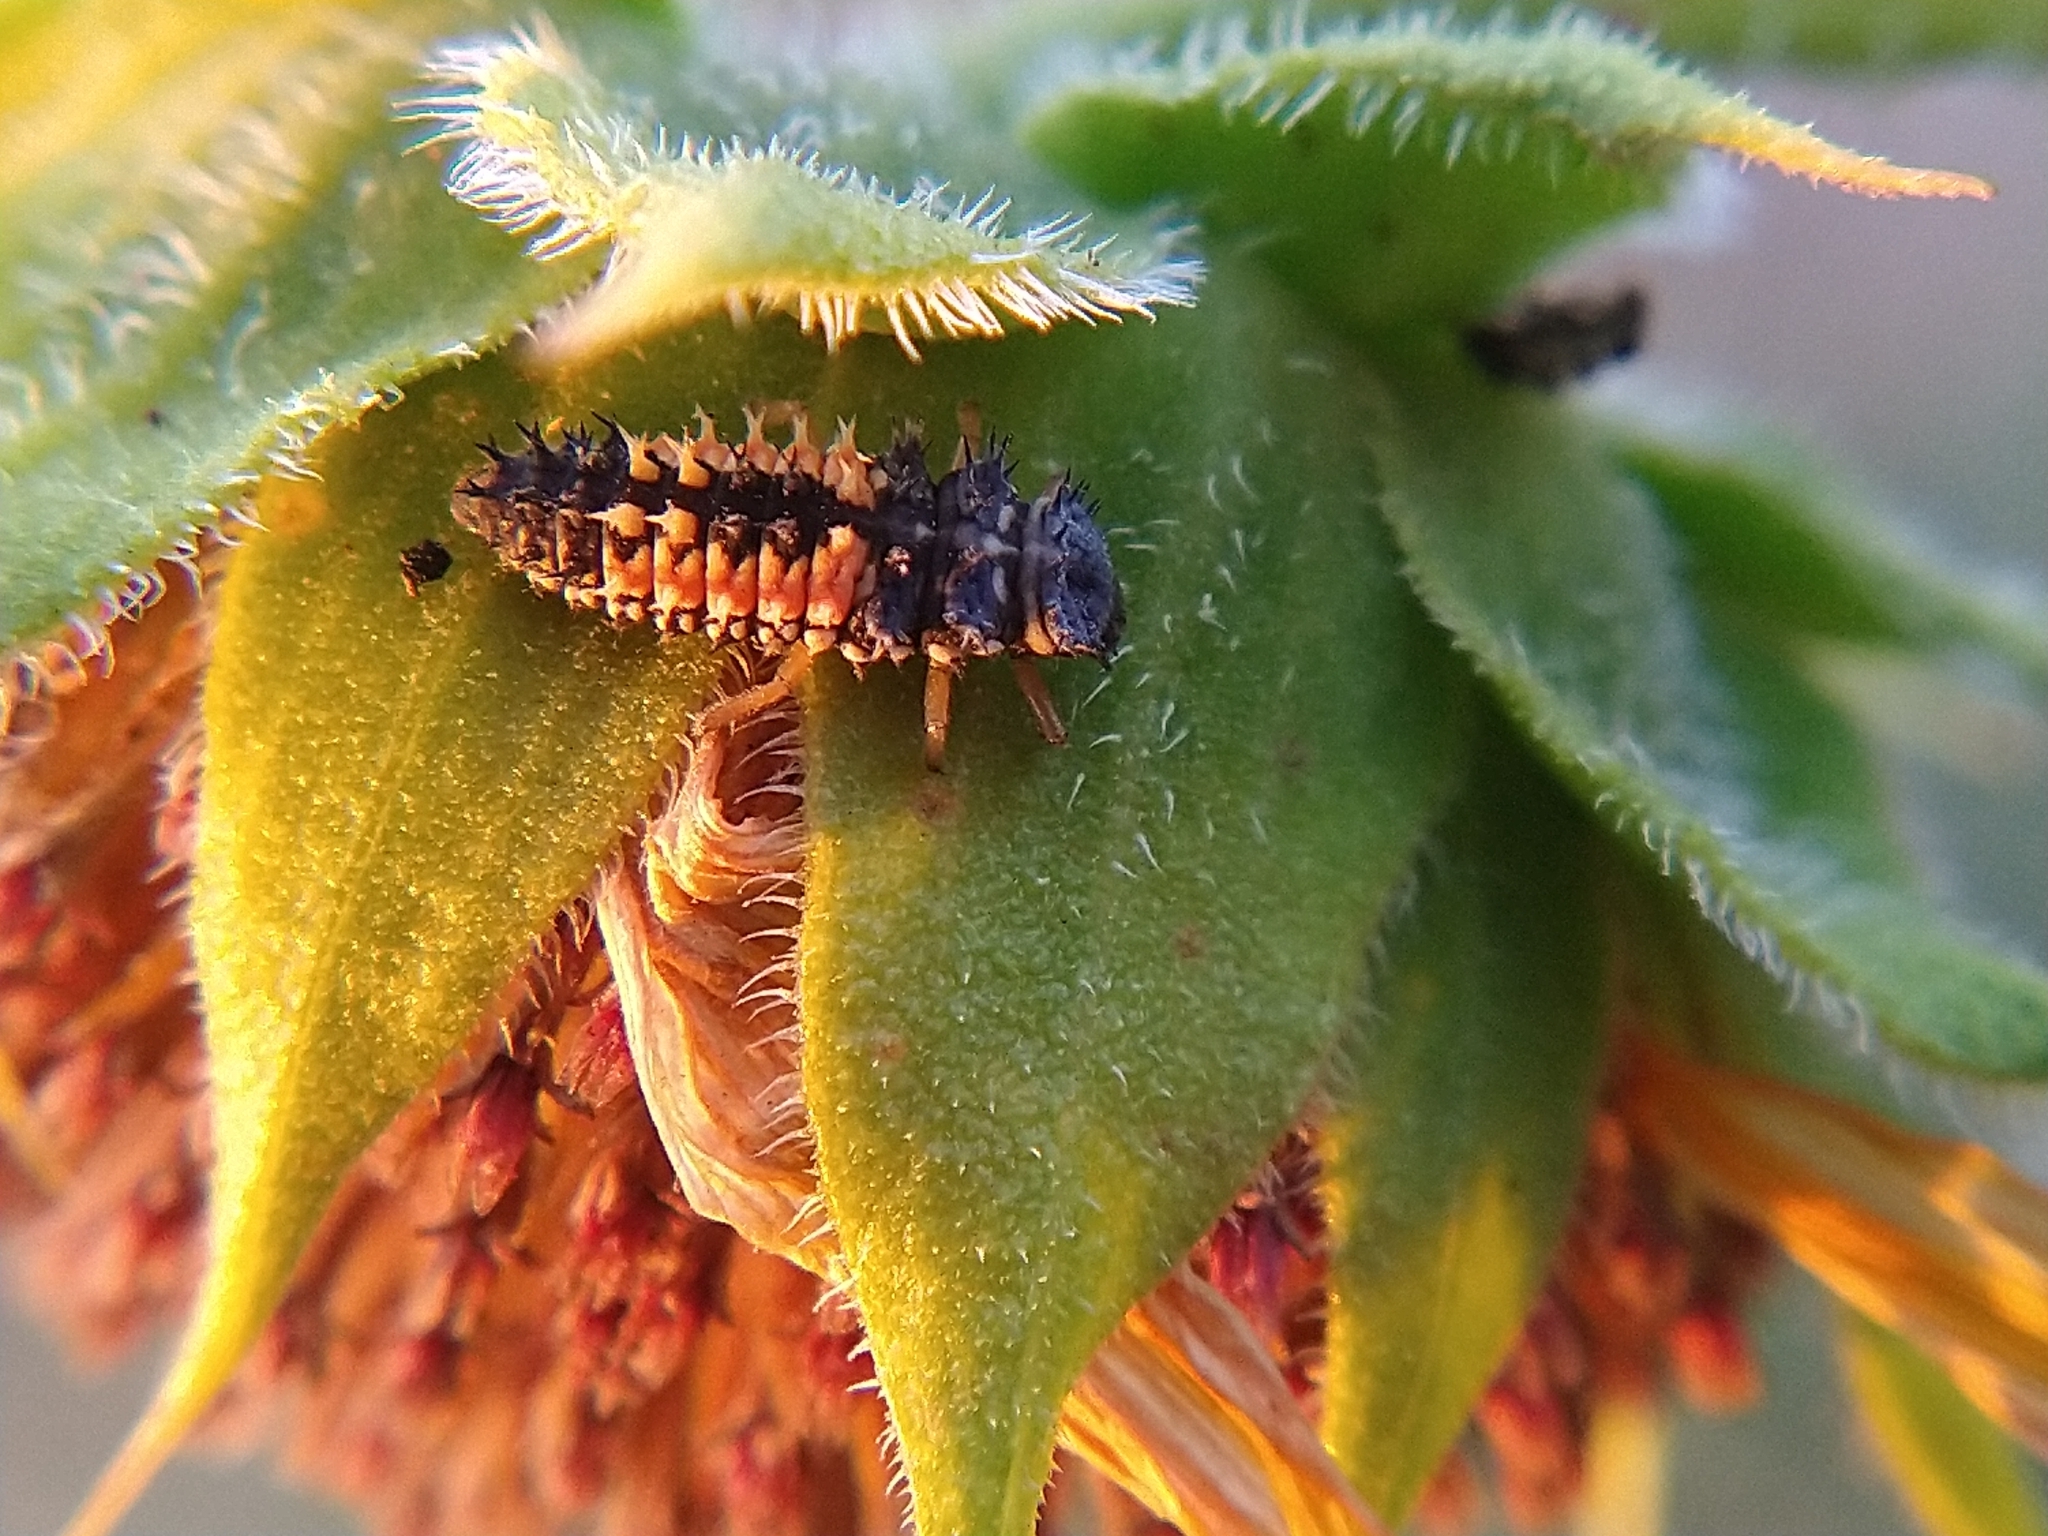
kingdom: Animalia
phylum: Arthropoda
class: Insecta
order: Coleoptera
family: Coccinellidae
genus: Harmonia
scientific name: Harmonia axyridis
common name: Harlequin ladybird
